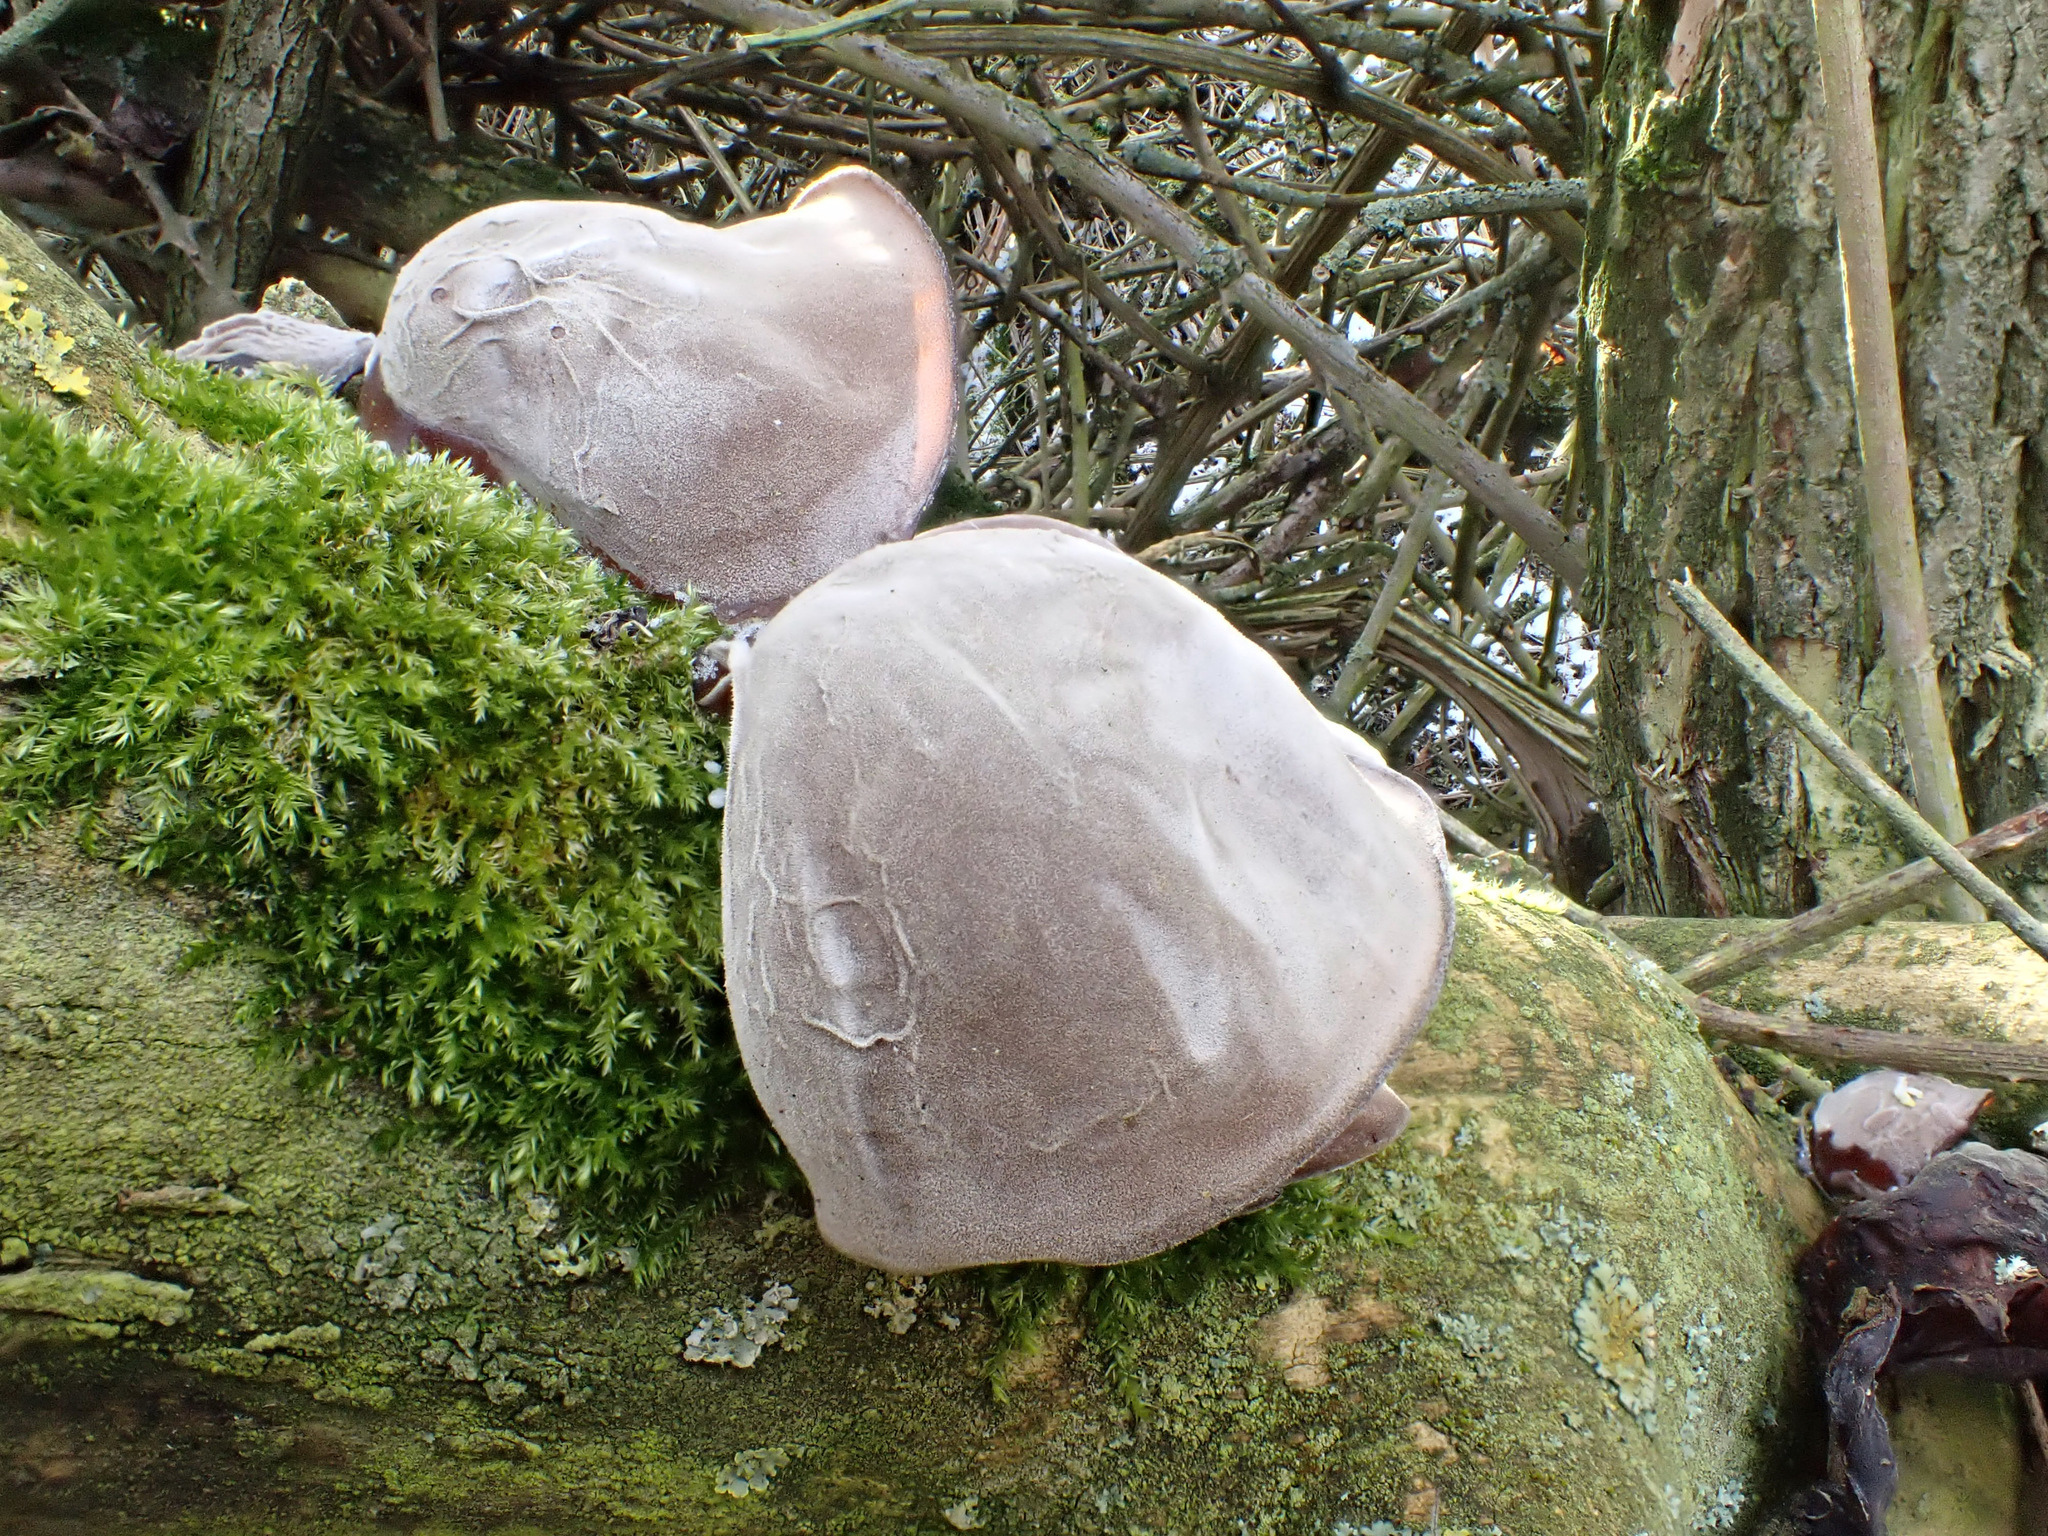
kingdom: Fungi
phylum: Basidiomycota
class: Agaricomycetes
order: Auriculariales
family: Auriculariaceae
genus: Auricularia
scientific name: Auricularia auricula-judae
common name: Jelly ear
